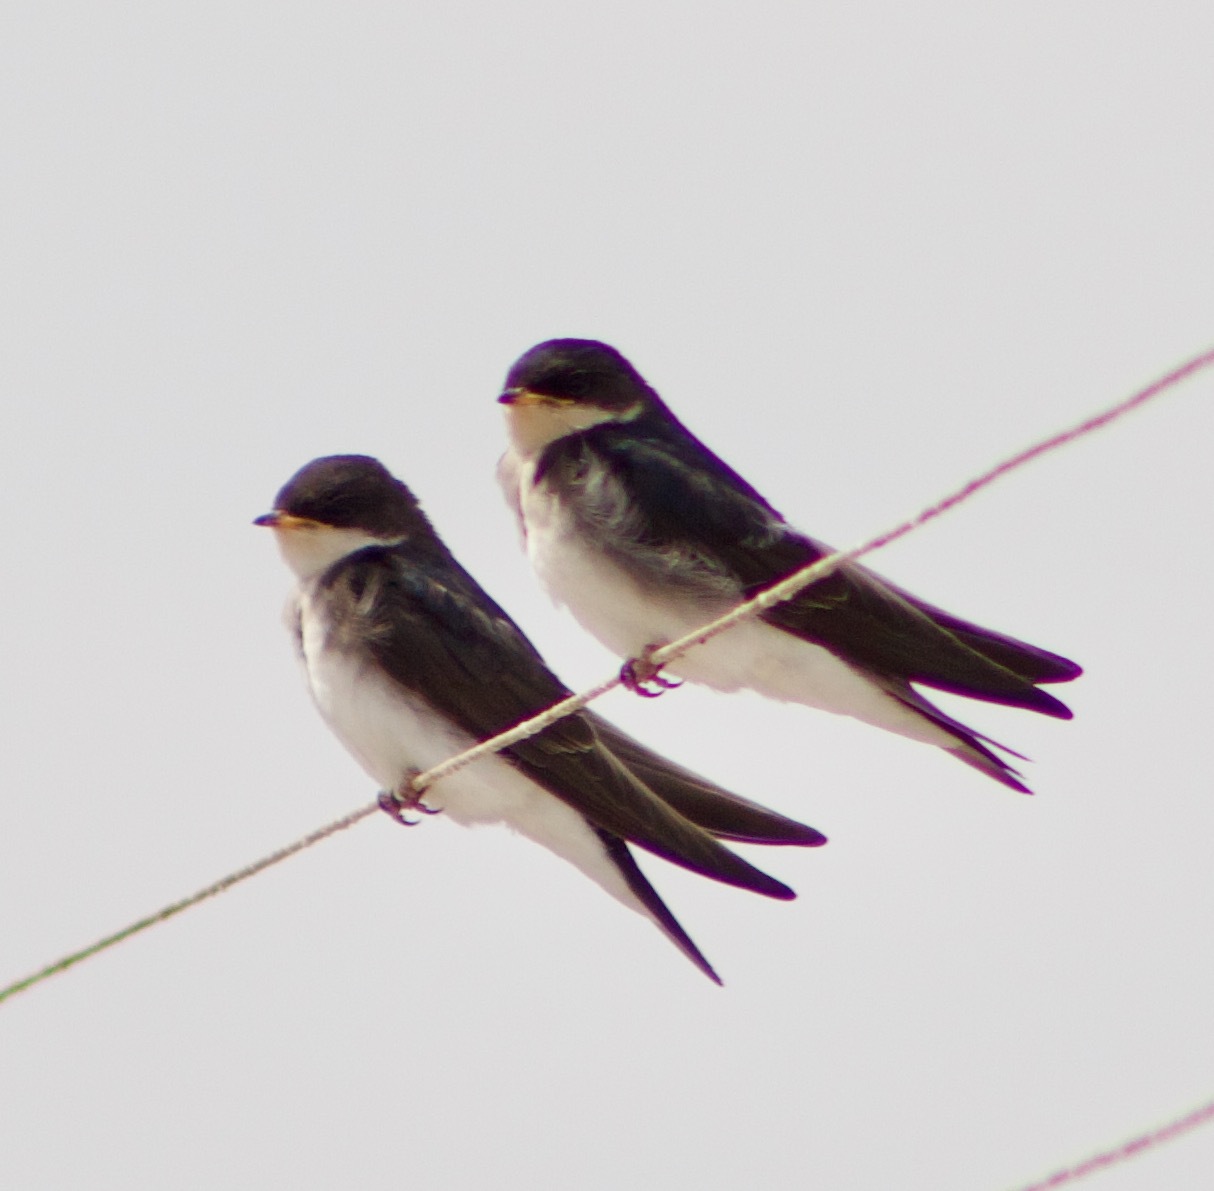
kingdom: Animalia
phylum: Chordata
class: Aves
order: Passeriformes
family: Hirundinidae
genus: Tachycineta
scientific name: Tachycineta leucopyga
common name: Chilean swallow
